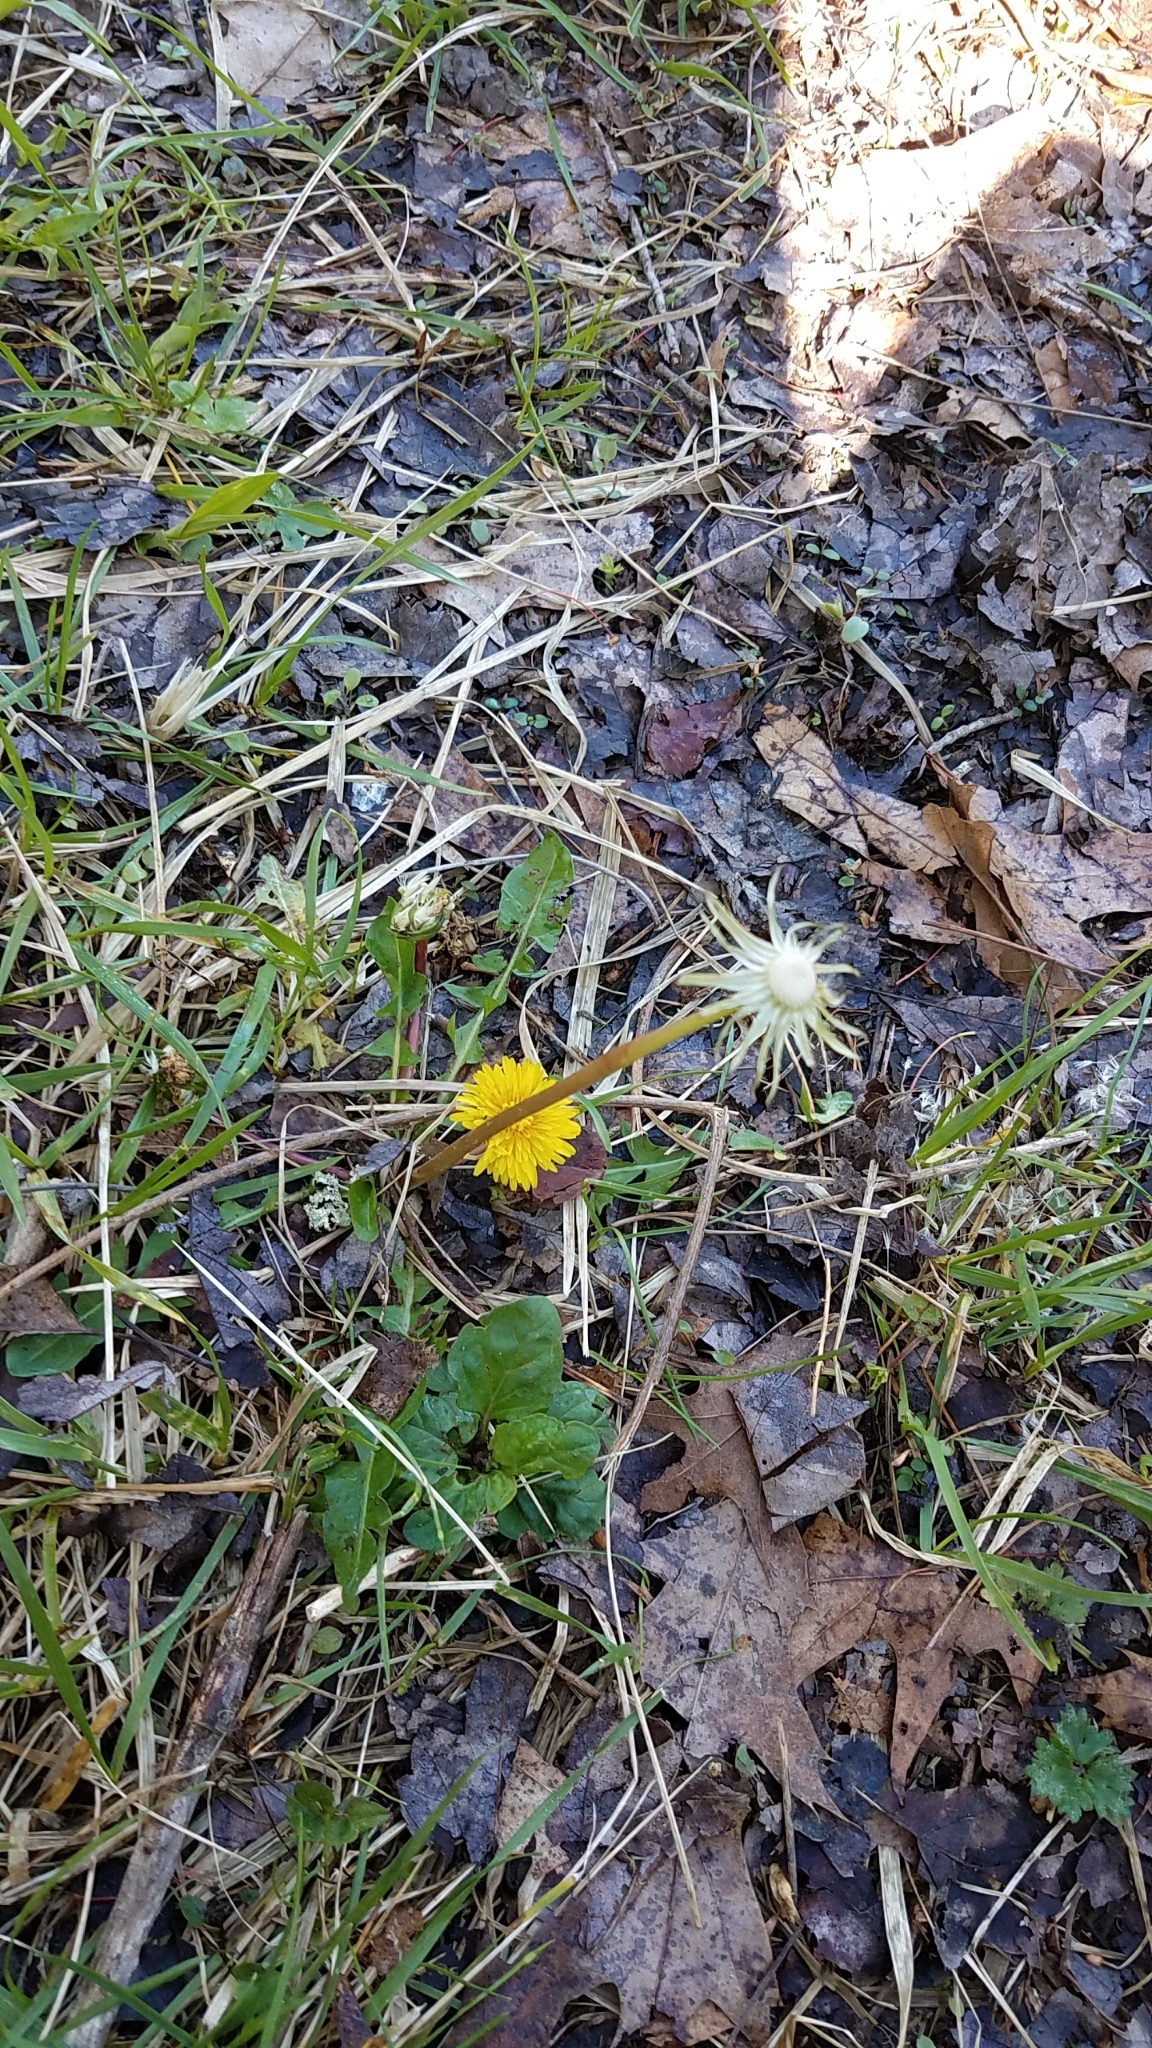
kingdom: Plantae
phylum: Tracheophyta
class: Magnoliopsida
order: Asterales
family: Asteraceae
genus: Taraxacum
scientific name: Taraxacum officinale
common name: Common dandelion
